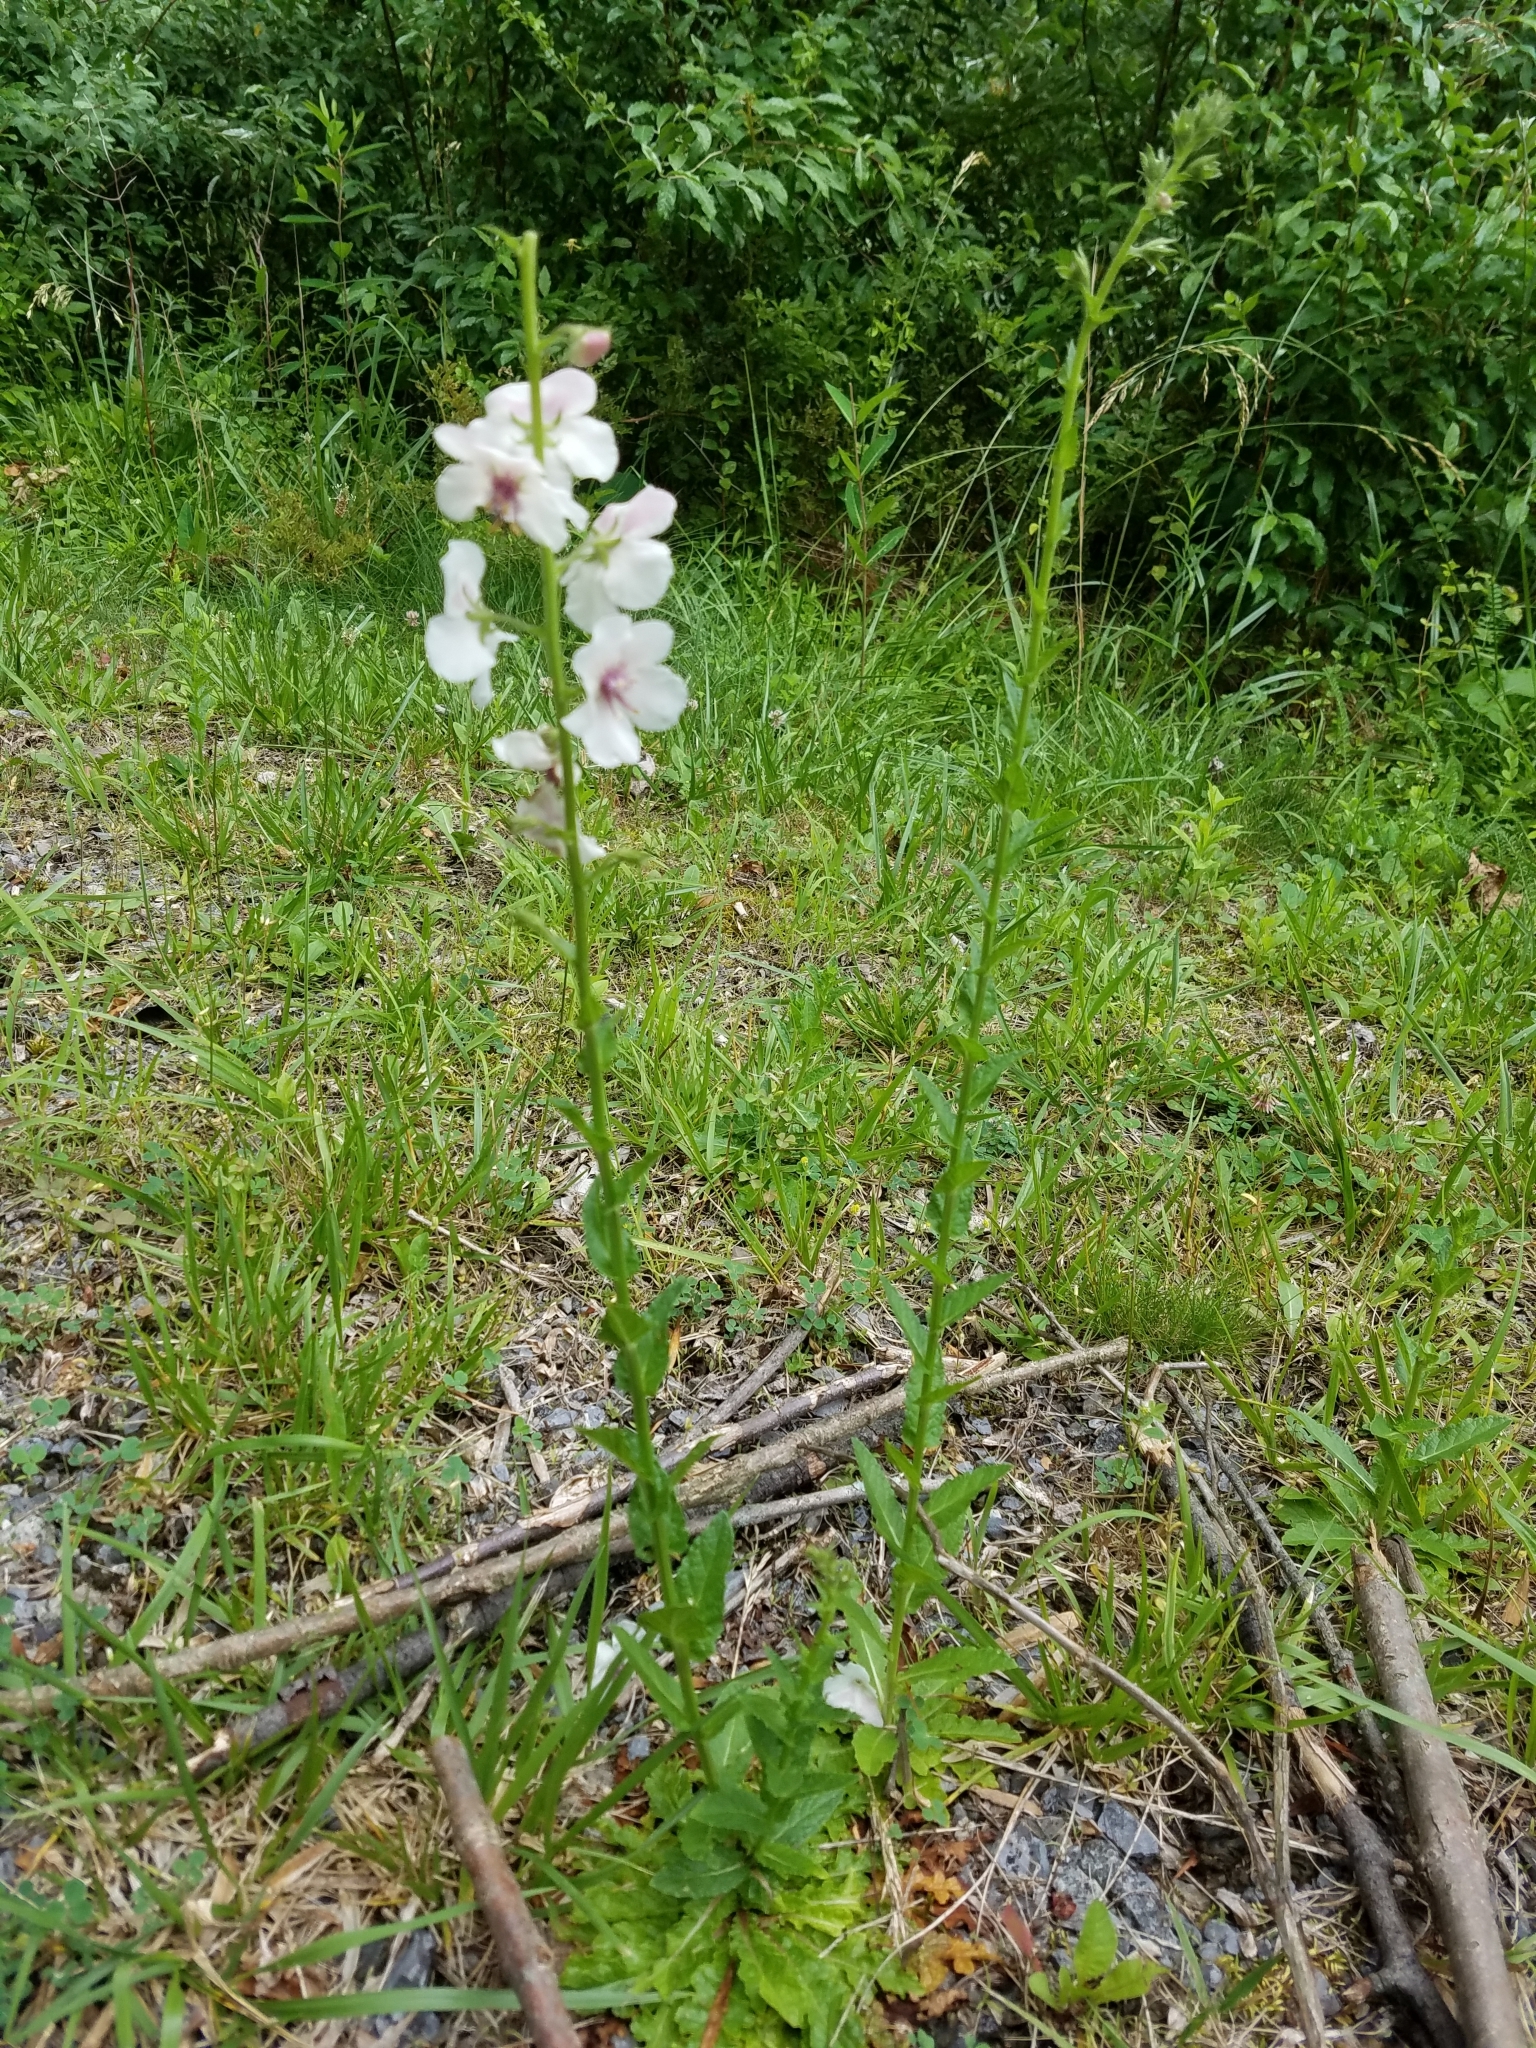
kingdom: Plantae
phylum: Tracheophyta
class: Magnoliopsida
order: Lamiales
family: Scrophulariaceae
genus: Verbascum
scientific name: Verbascum blattaria
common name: Moth mullein
